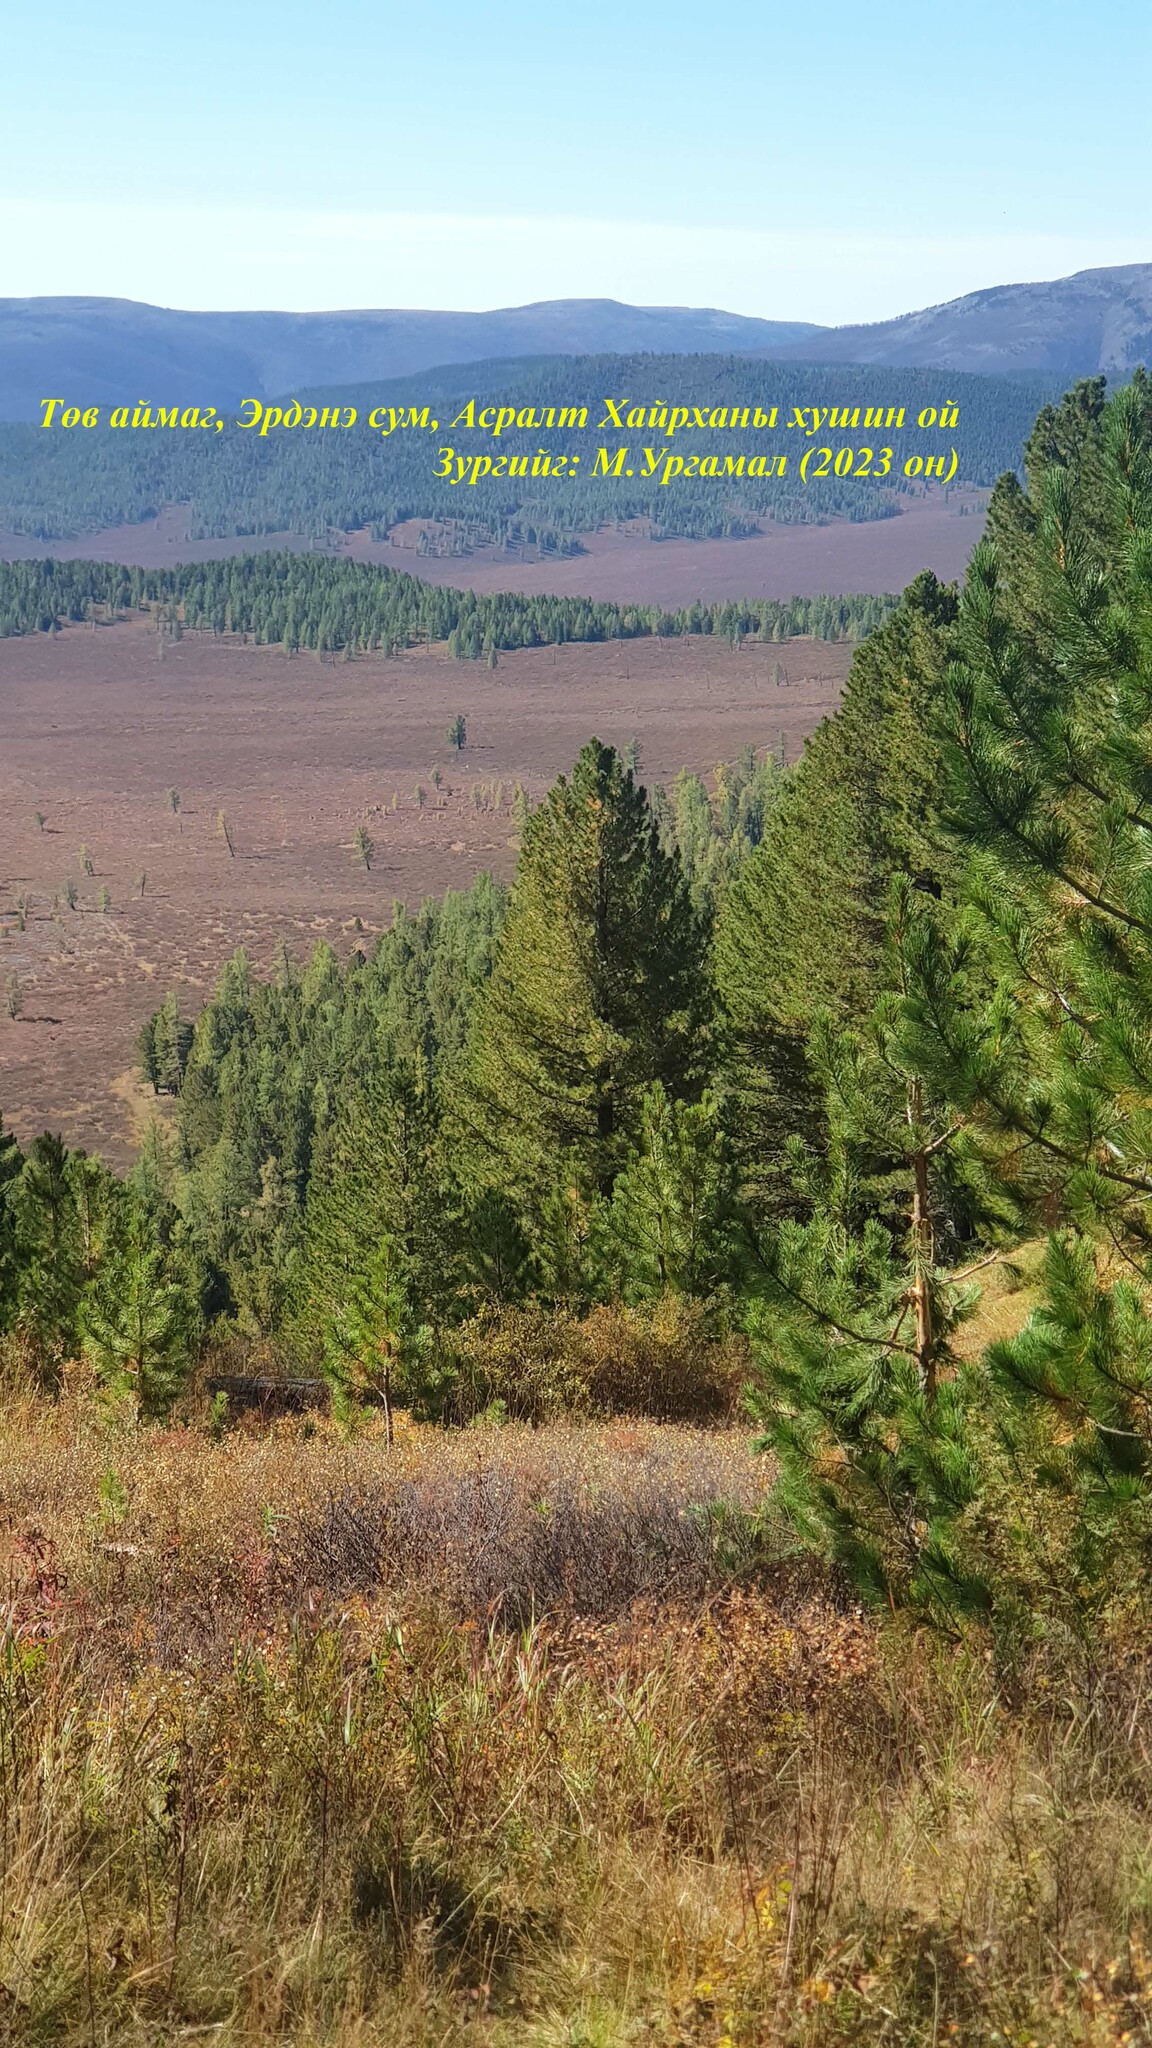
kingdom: Plantae
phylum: Tracheophyta
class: Pinopsida
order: Pinales
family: Pinaceae
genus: Pinus
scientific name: Pinus sibirica
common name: Siberian pine
